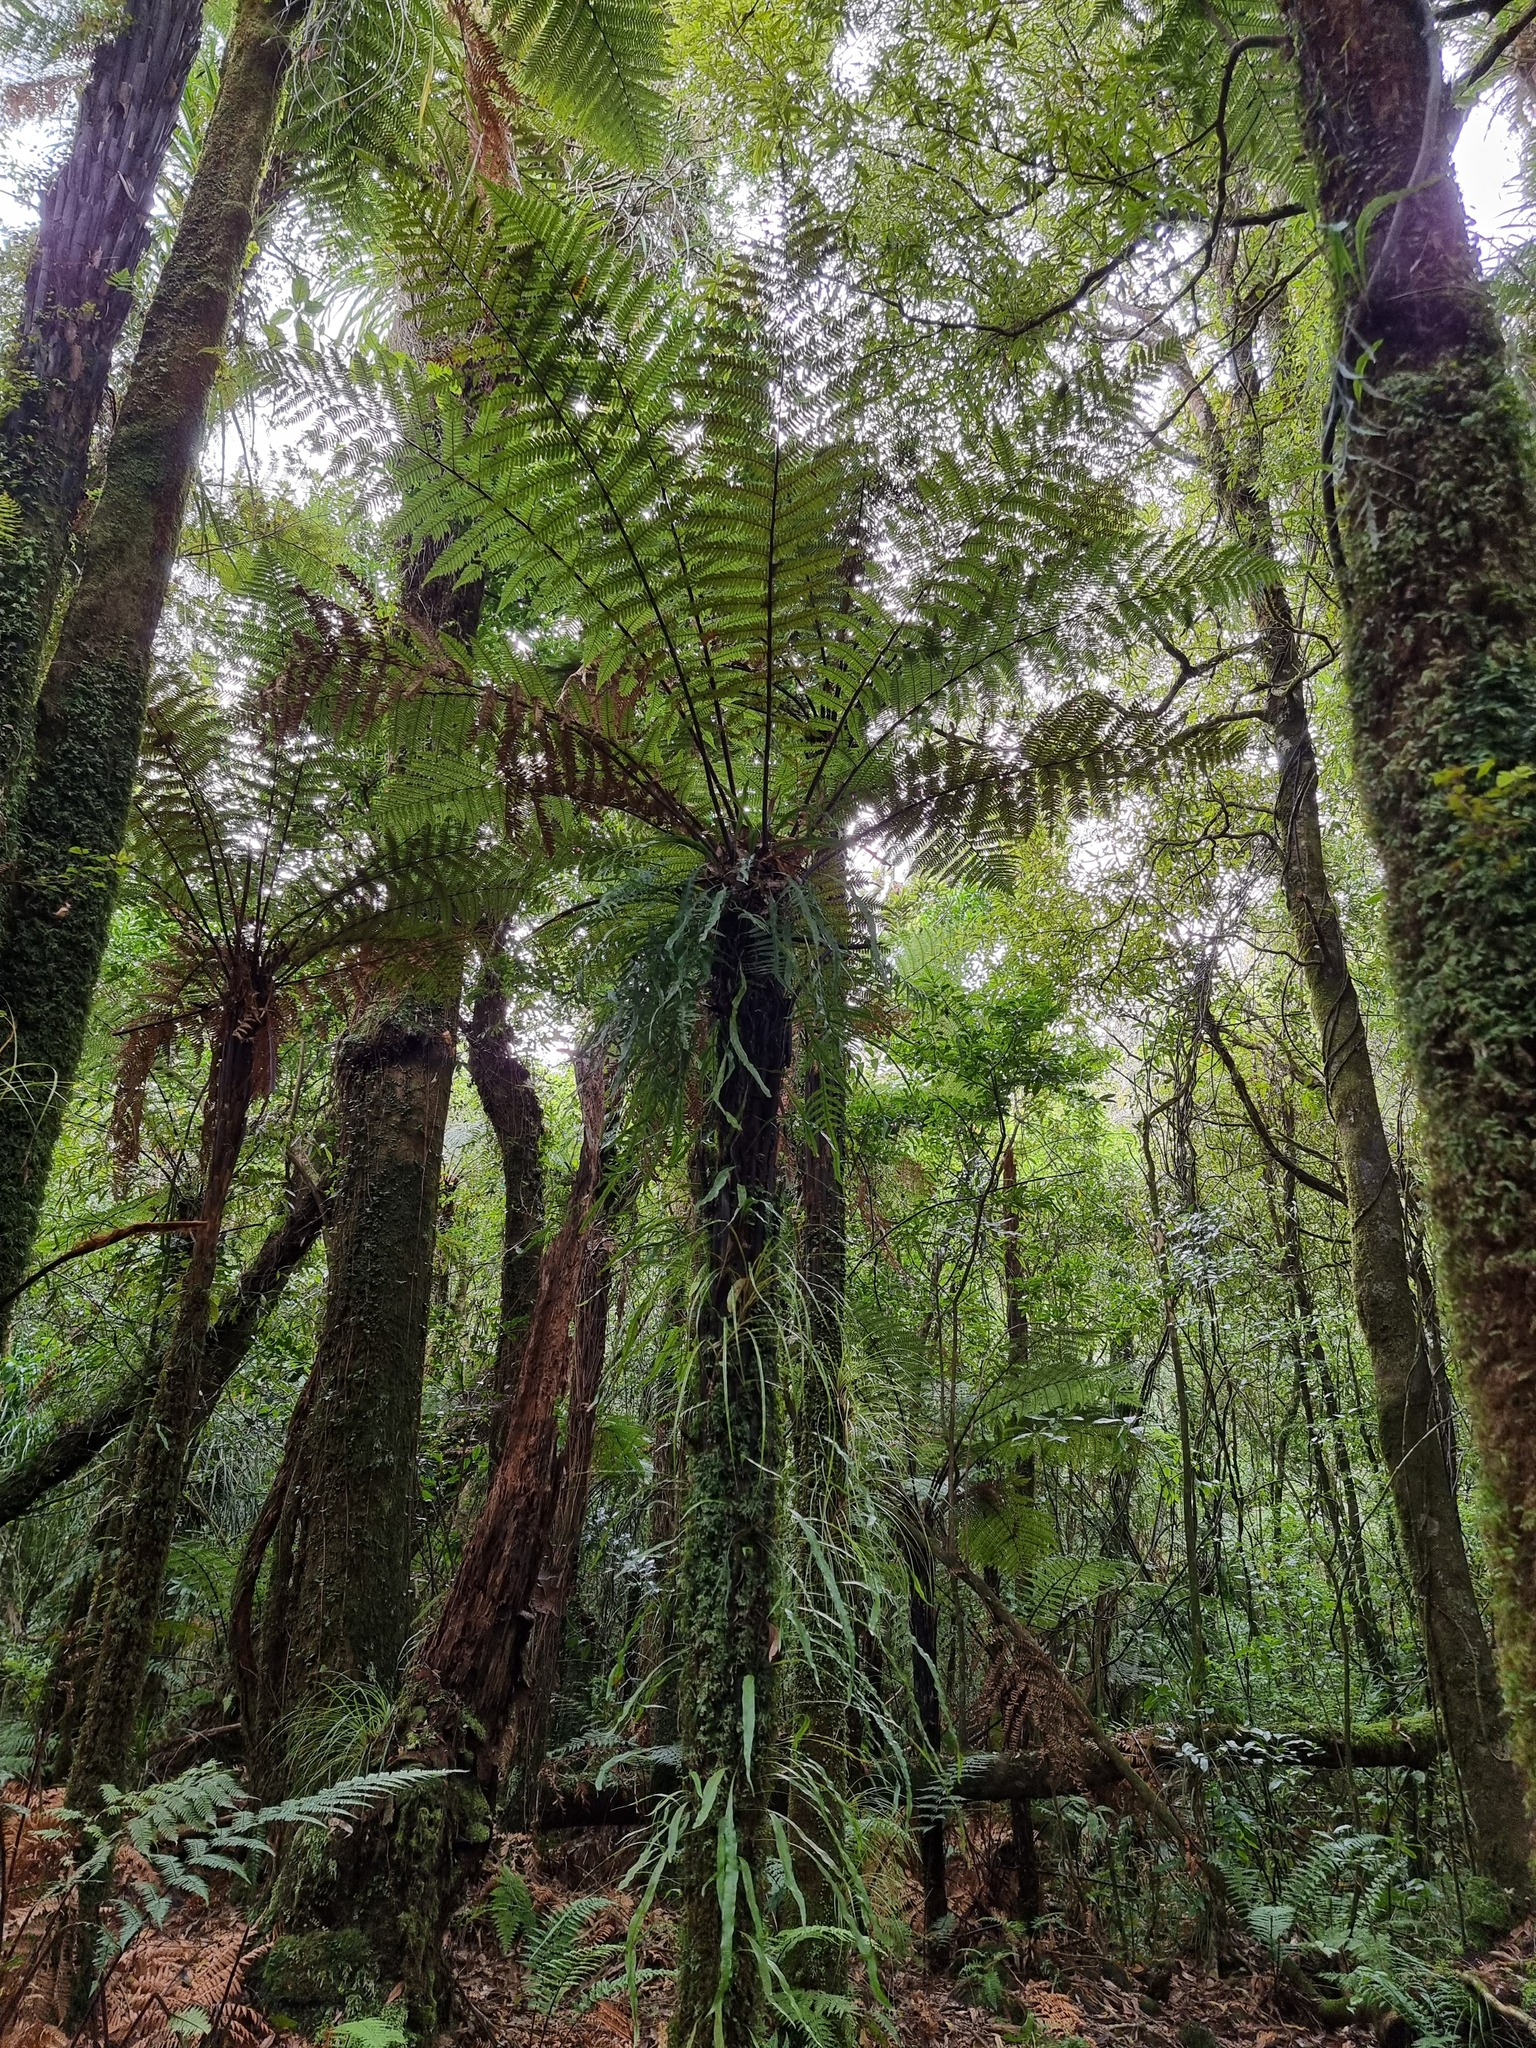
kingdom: Plantae
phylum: Tracheophyta
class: Polypodiopsida
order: Cyatheales
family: Cyatheaceae
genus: Alsophila
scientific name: Alsophila smithii
